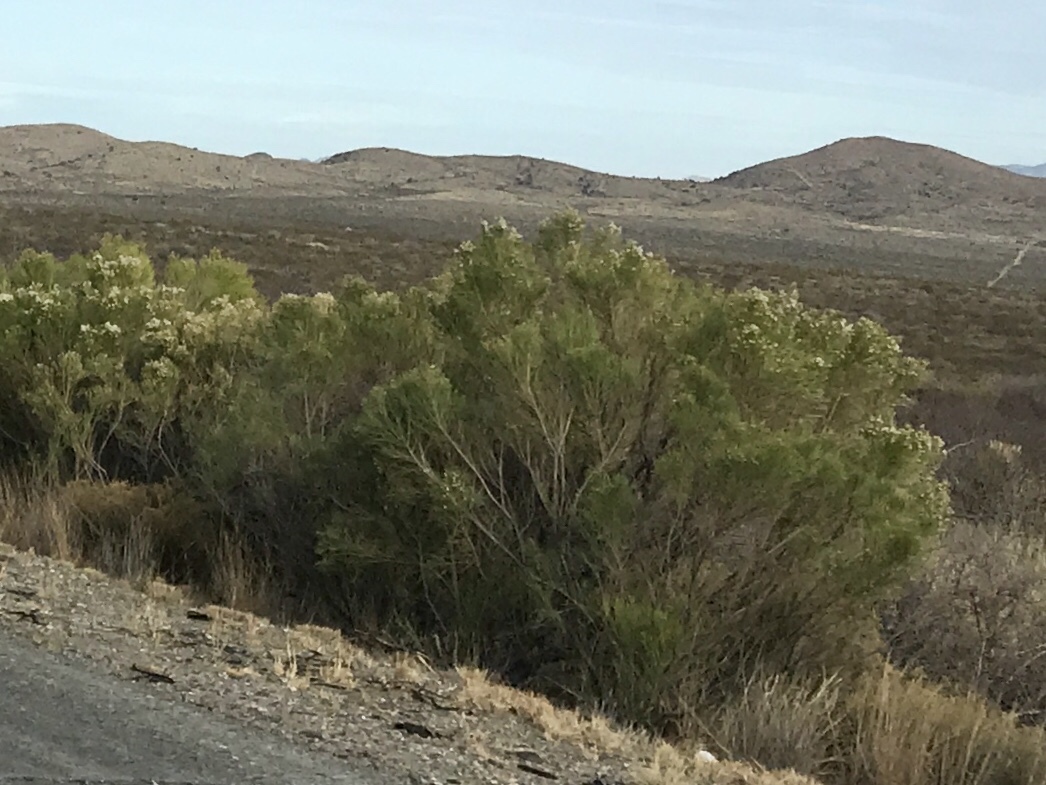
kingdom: Plantae
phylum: Tracheophyta
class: Magnoliopsida
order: Asterales
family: Asteraceae
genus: Baccharis
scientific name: Baccharis sarothroides
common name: Desert-broom
